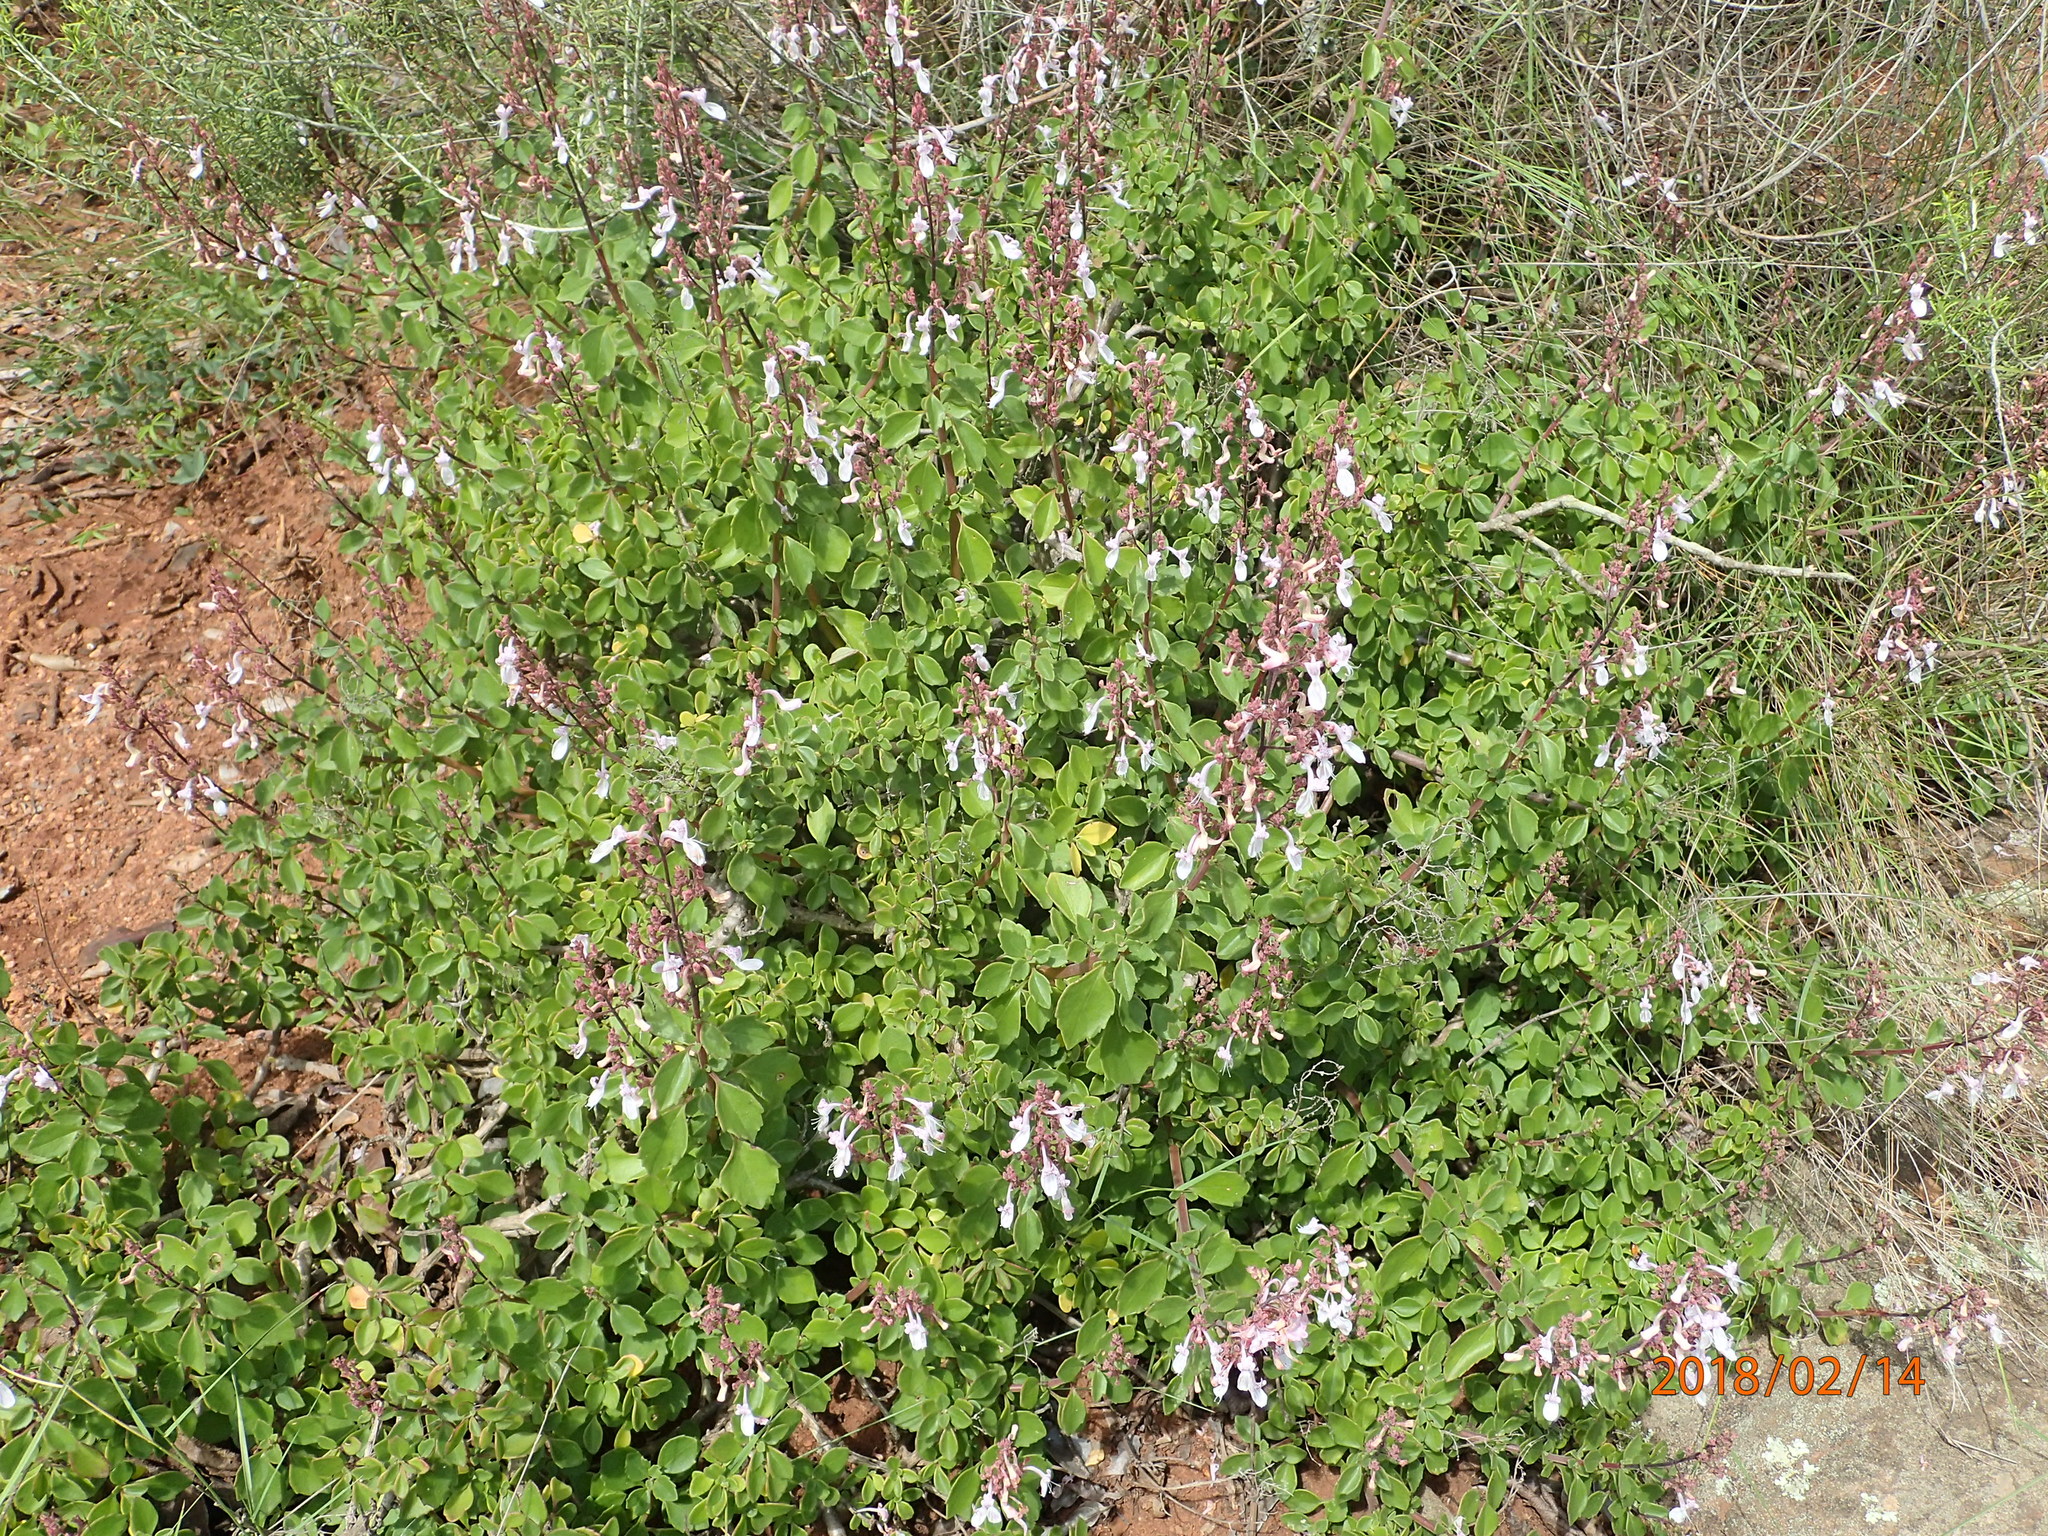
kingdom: Plantae
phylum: Tracheophyta
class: Magnoliopsida
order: Lamiales
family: Lamiaceae
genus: Aeollanthus
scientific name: Aeollanthus parvifolius
